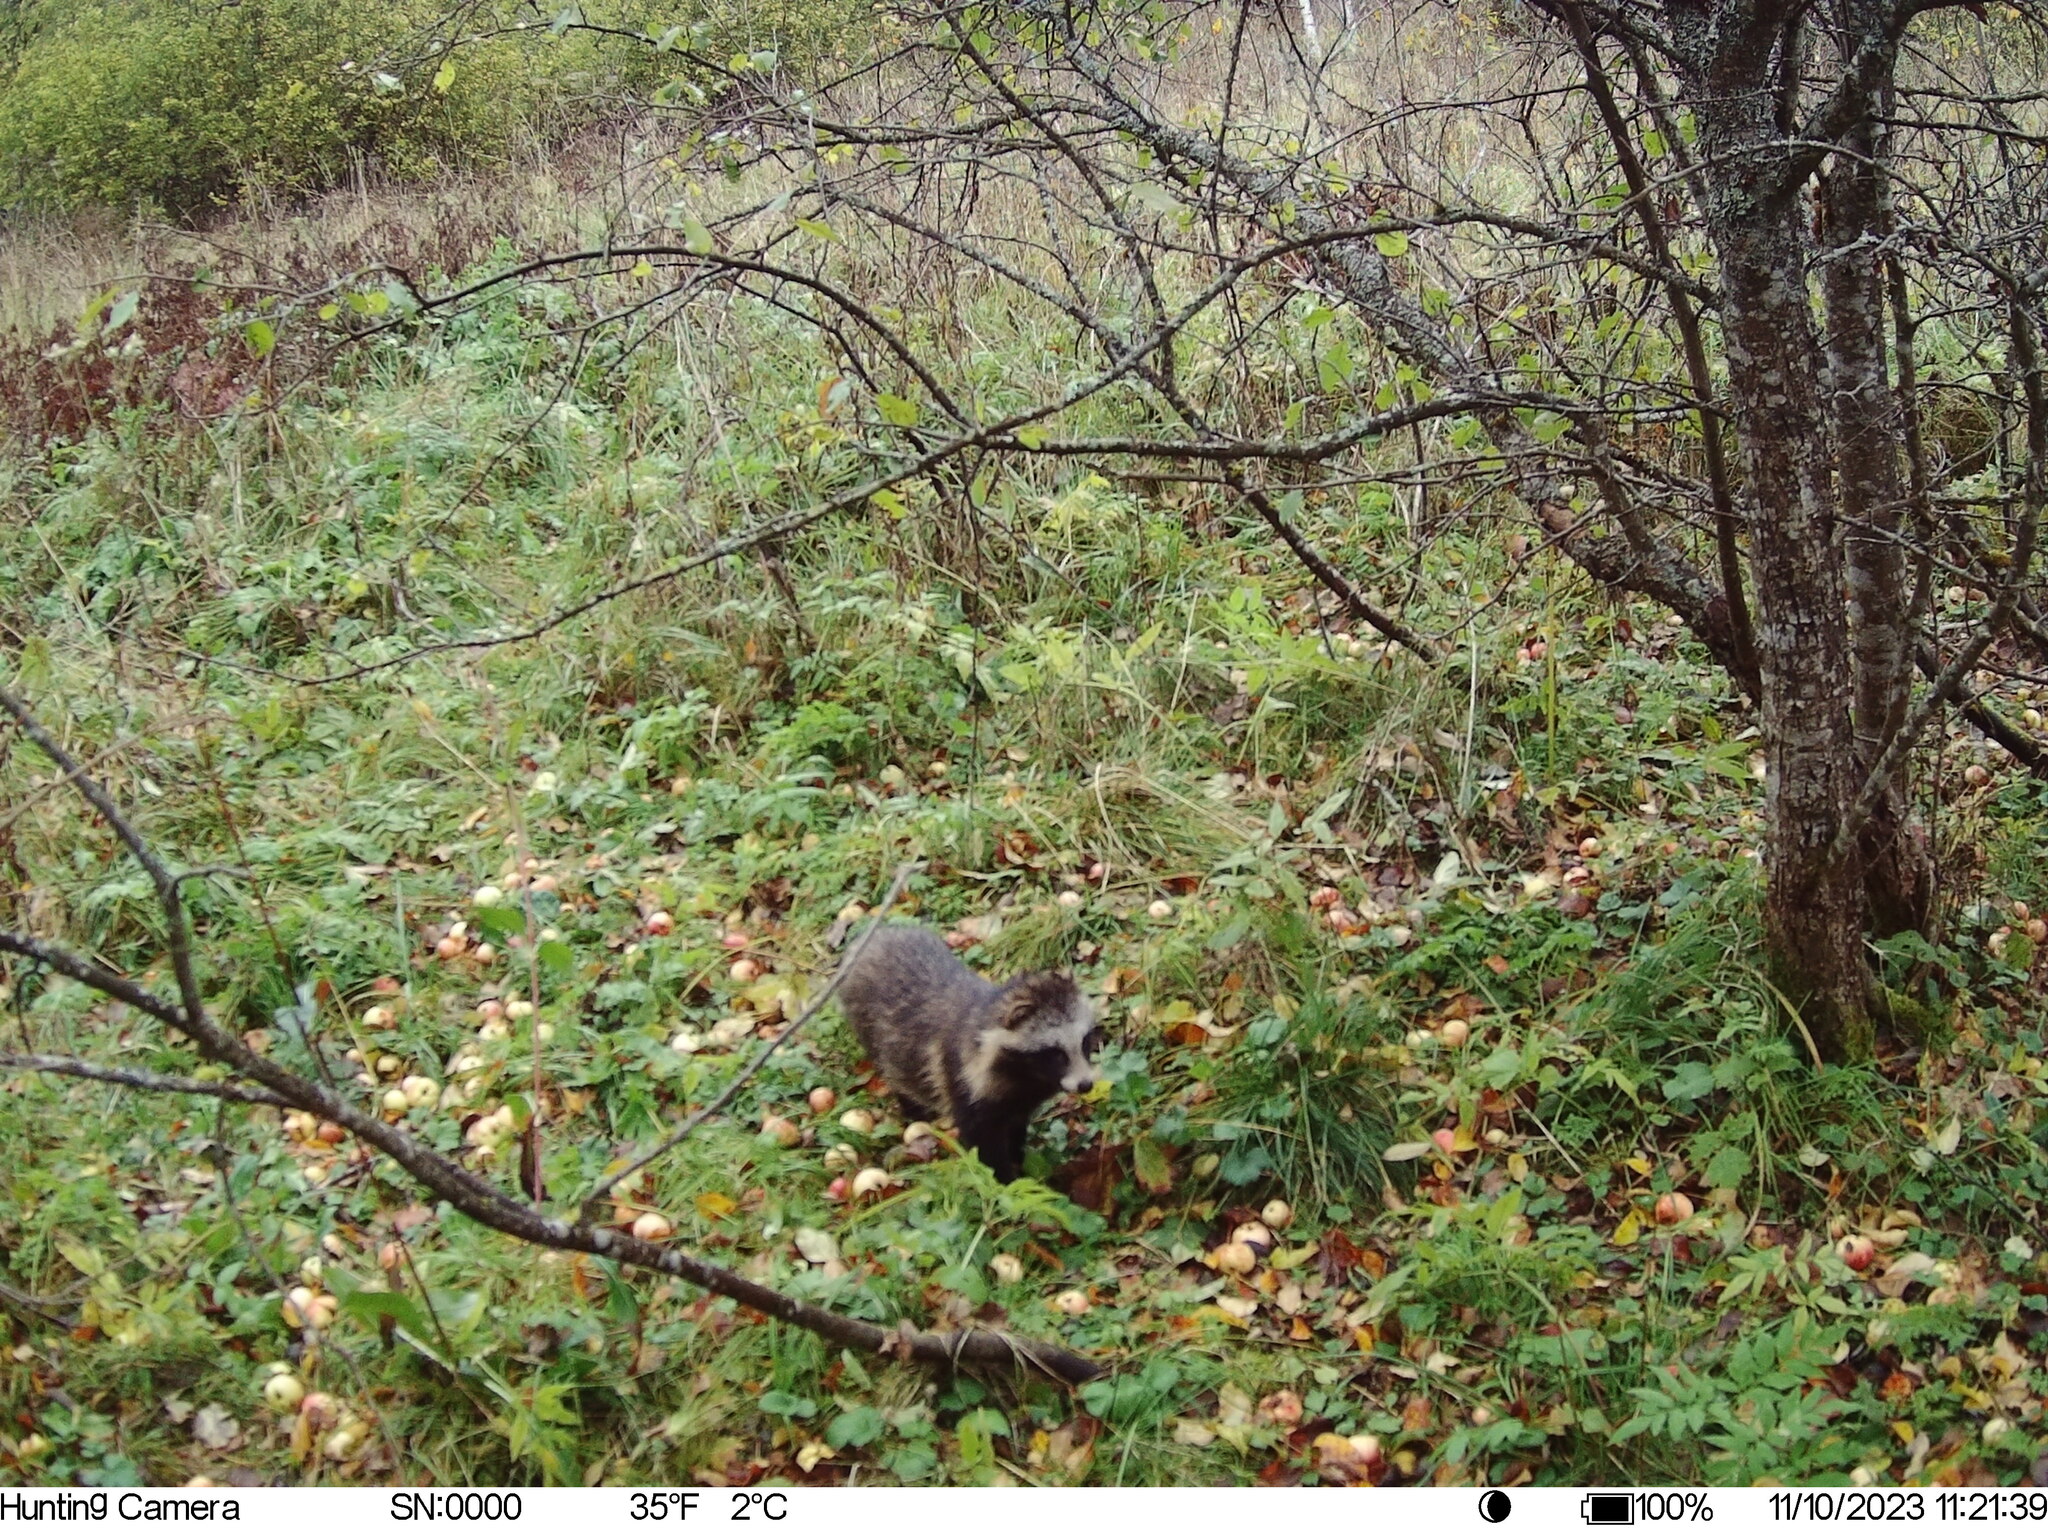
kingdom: Animalia
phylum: Chordata
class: Mammalia
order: Carnivora
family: Canidae
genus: Nyctereutes
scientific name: Nyctereutes procyonoides
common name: Raccoon dog
